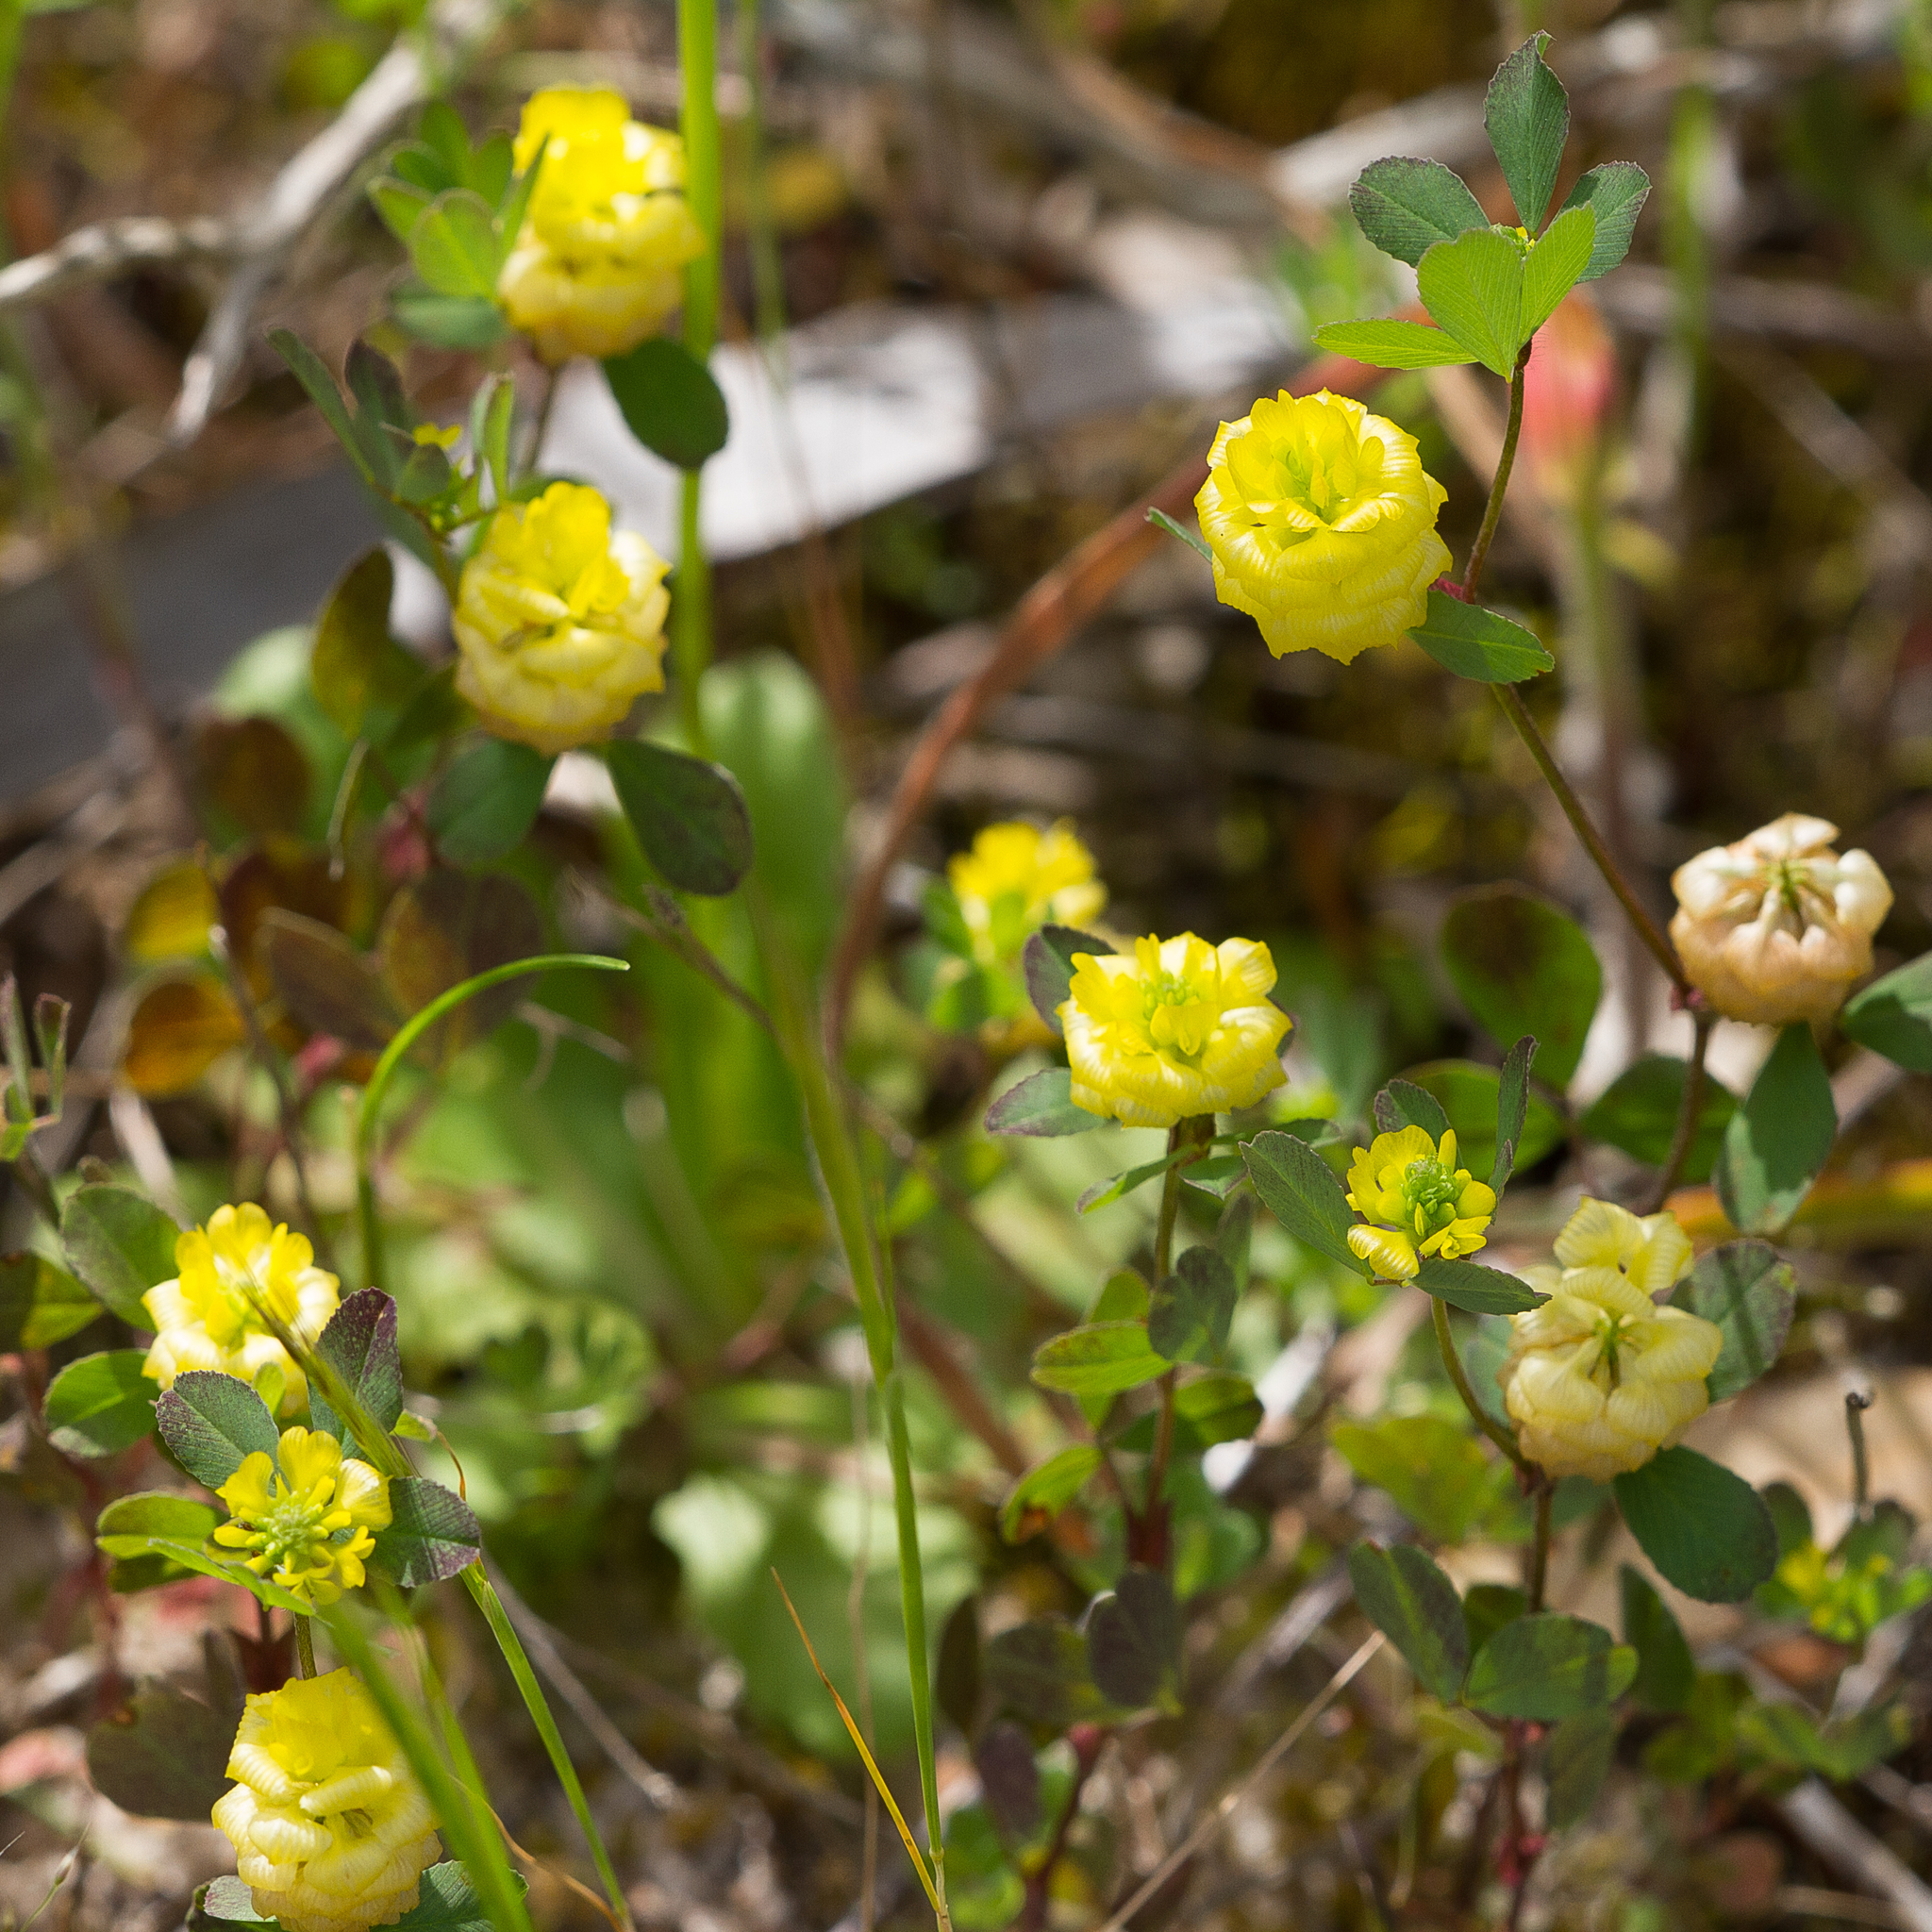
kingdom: Plantae
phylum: Tracheophyta
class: Magnoliopsida
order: Fabales
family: Fabaceae
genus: Trifolium
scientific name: Trifolium campestre
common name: Field clover
